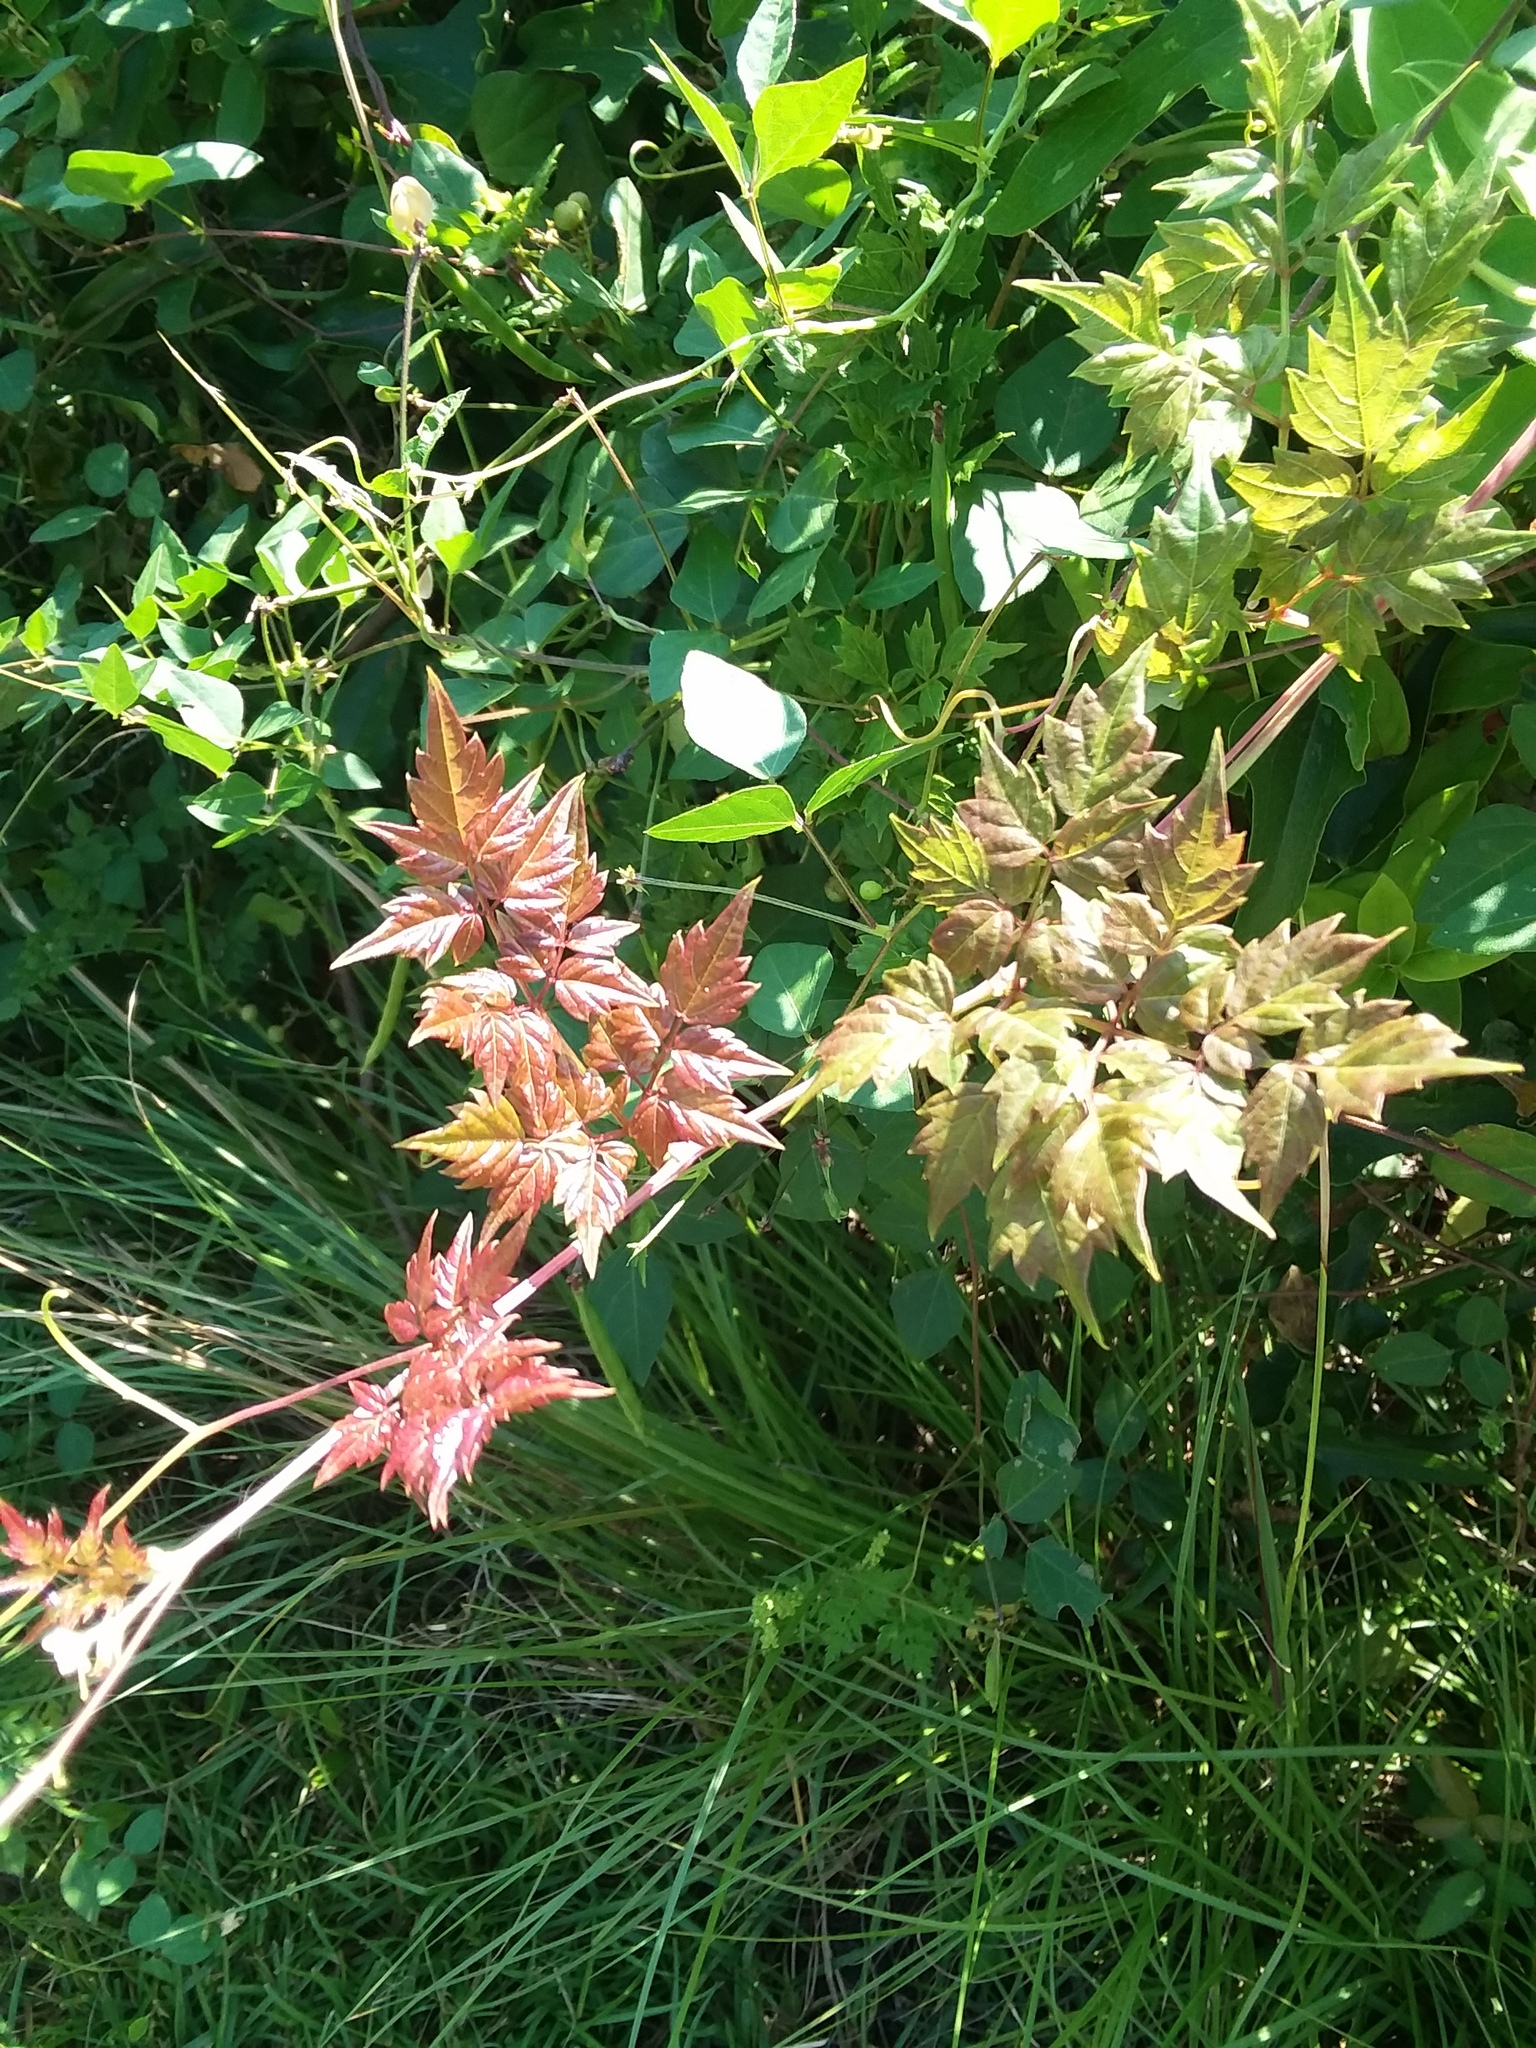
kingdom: Plantae
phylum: Tracheophyta
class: Magnoliopsida
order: Vitales
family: Vitaceae
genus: Nekemias
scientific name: Nekemias arborea
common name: Peppervine
